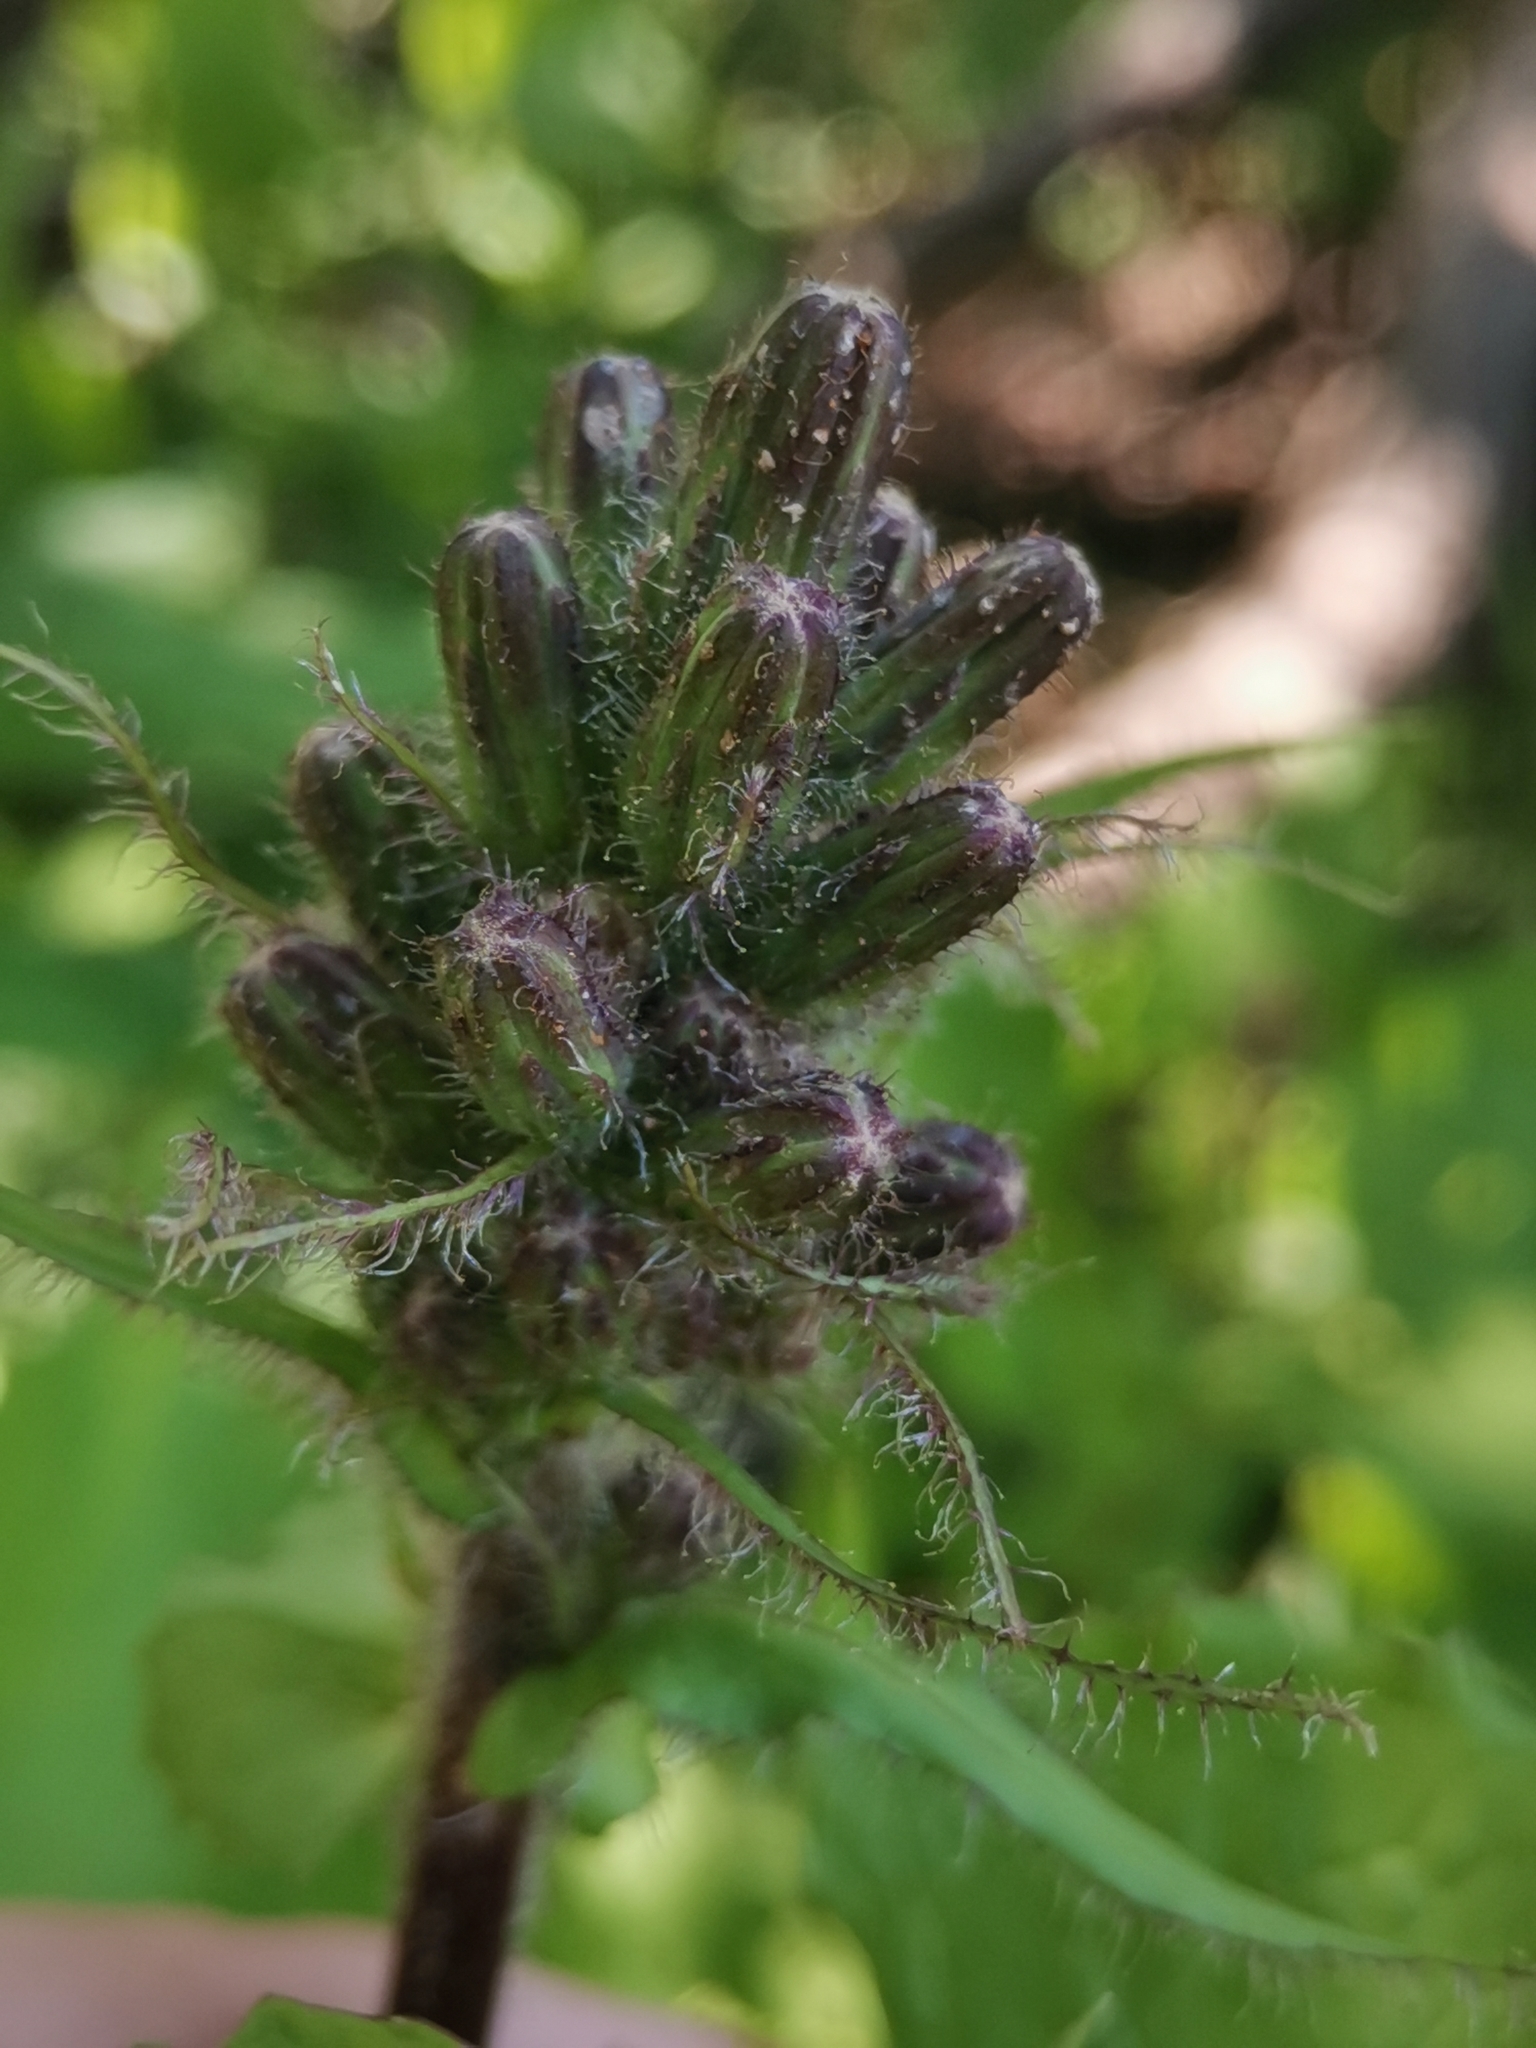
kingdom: Plantae
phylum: Tracheophyta
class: Magnoliopsida
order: Asterales
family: Asteraceae
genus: Cicerbita
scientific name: Cicerbita alpina
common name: Alpine blue-sow-thistle
